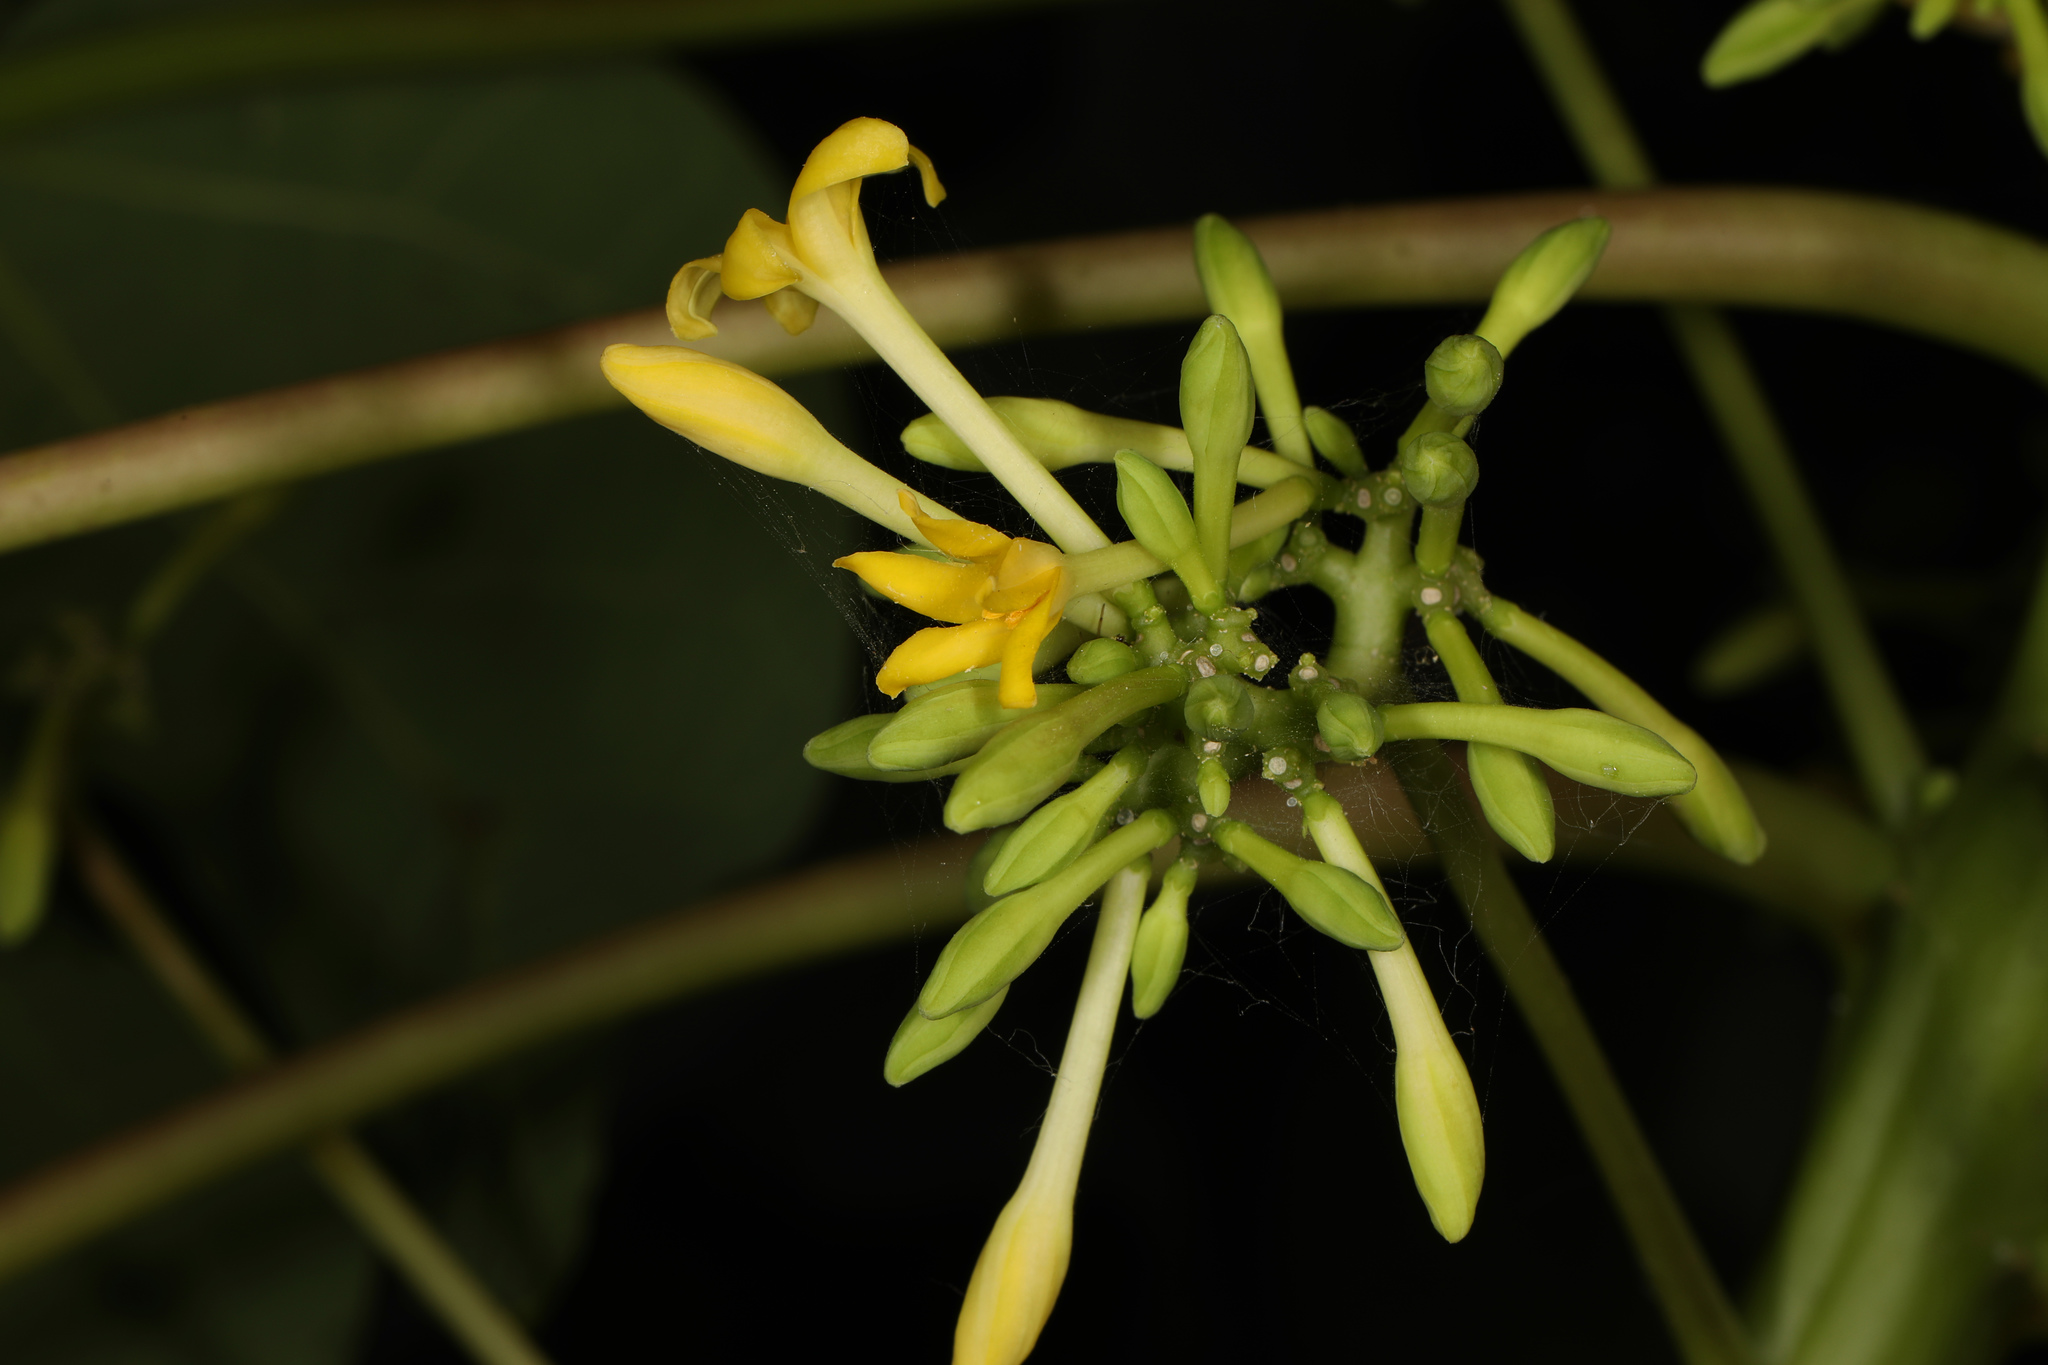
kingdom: Plantae
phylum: Tracheophyta
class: Magnoliopsida
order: Brassicales
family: Caricaceae
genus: Carica
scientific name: Carica papaya
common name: Papaya
